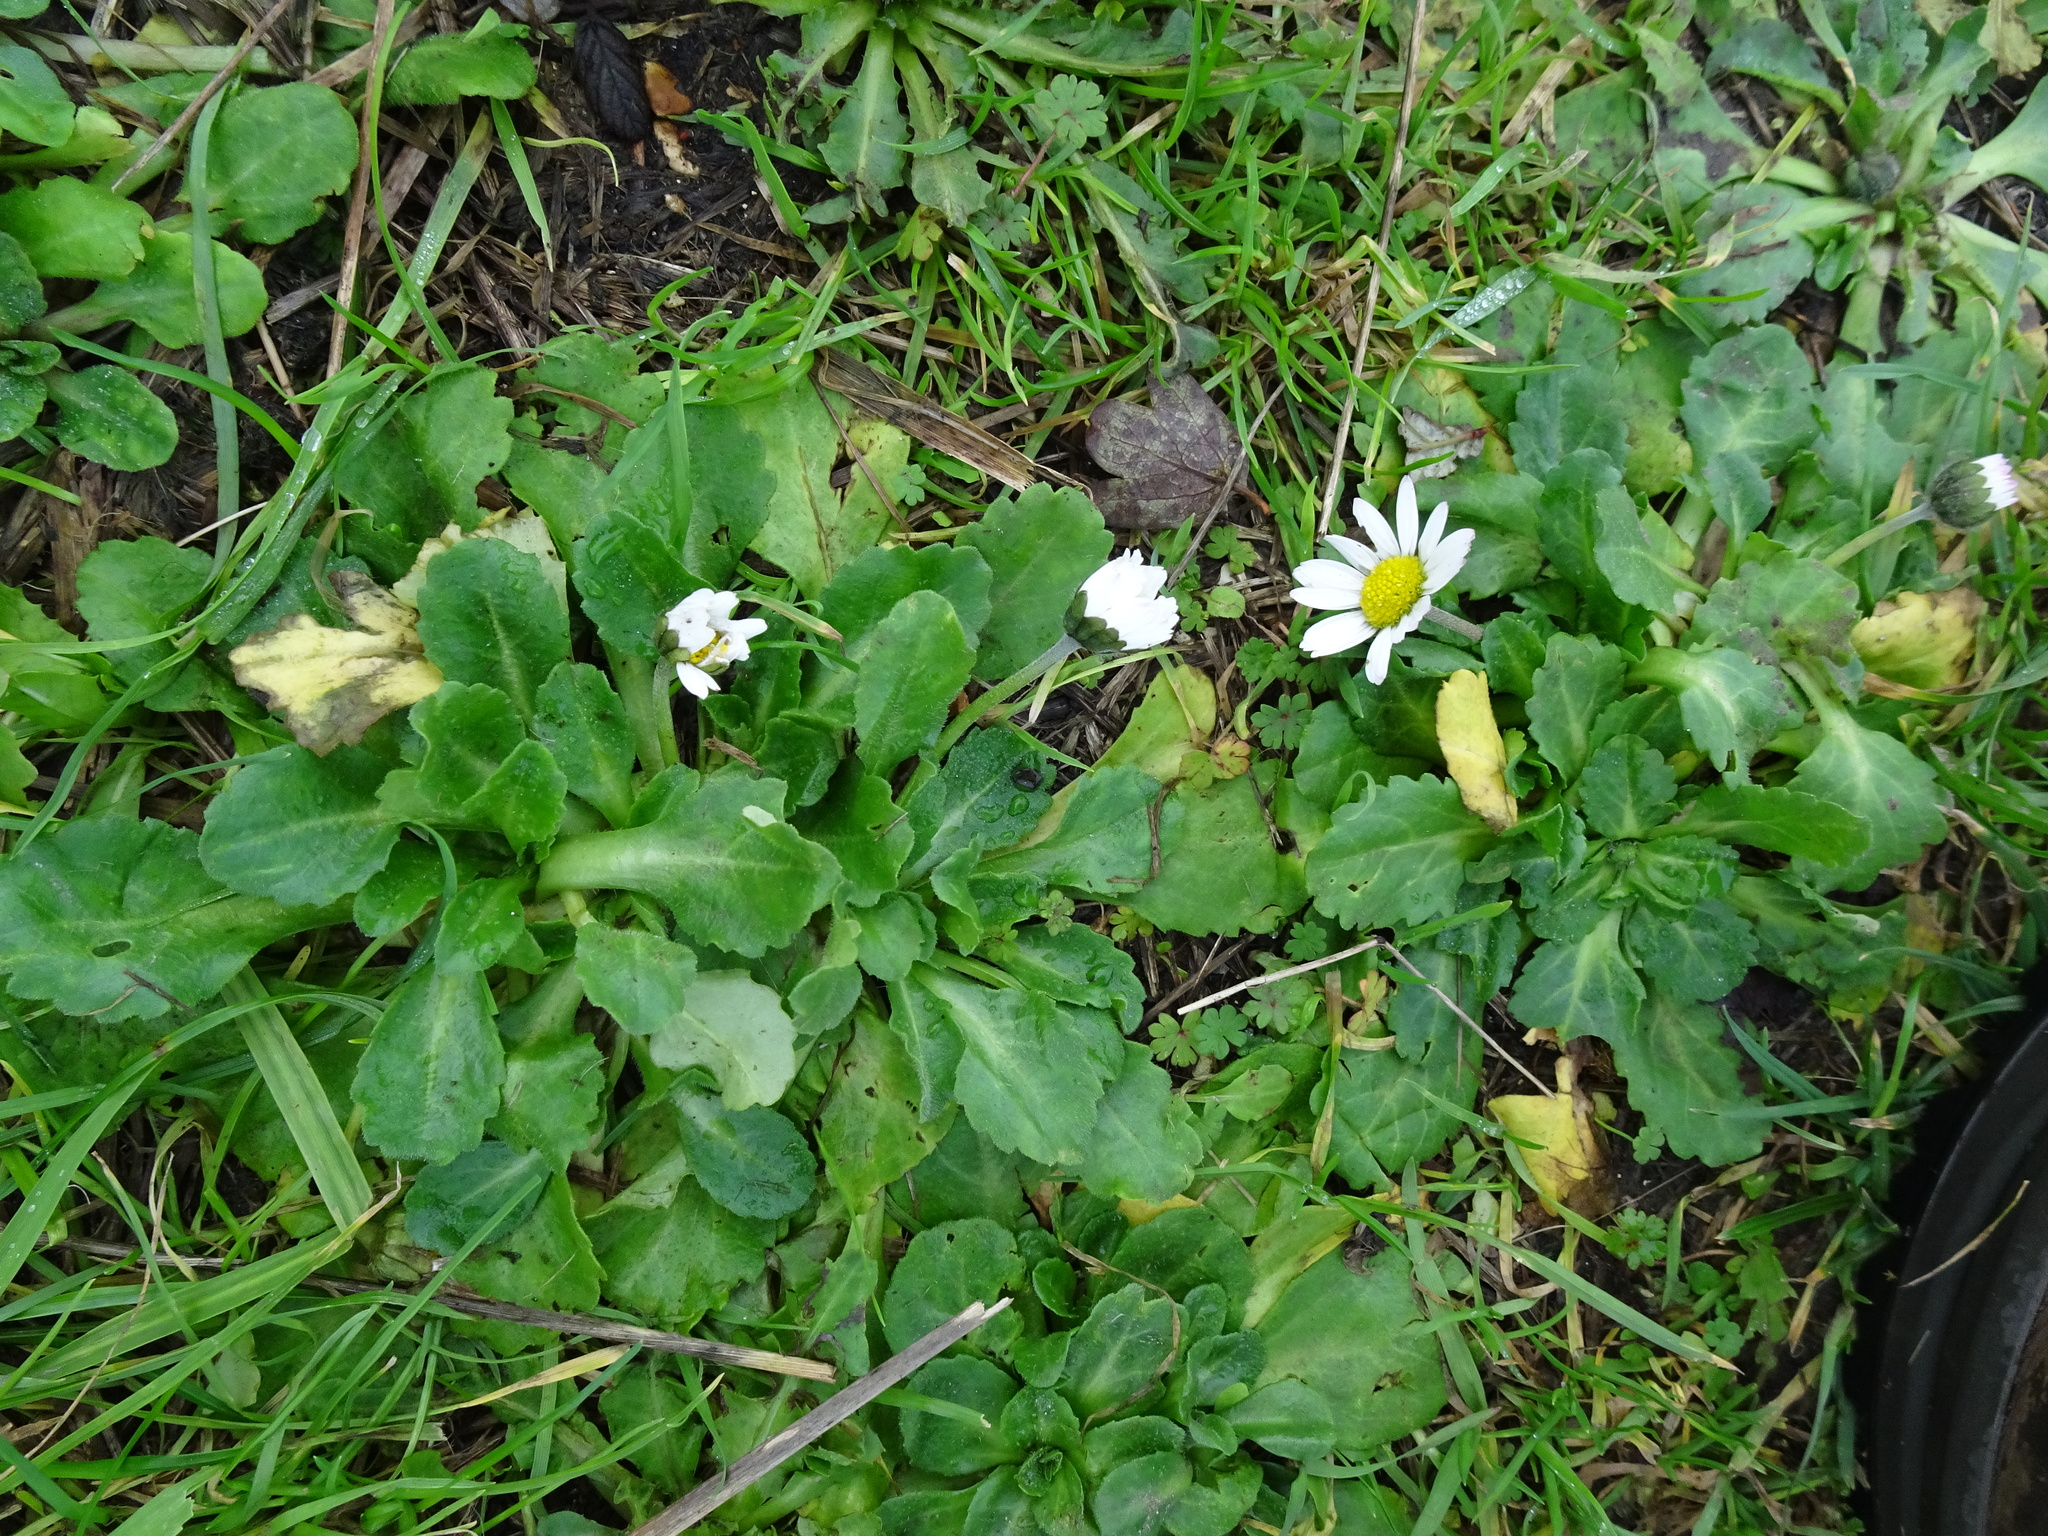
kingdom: Plantae
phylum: Tracheophyta
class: Magnoliopsida
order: Asterales
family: Asteraceae
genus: Bellis
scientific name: Bellis perennis
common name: Lawndaisy
